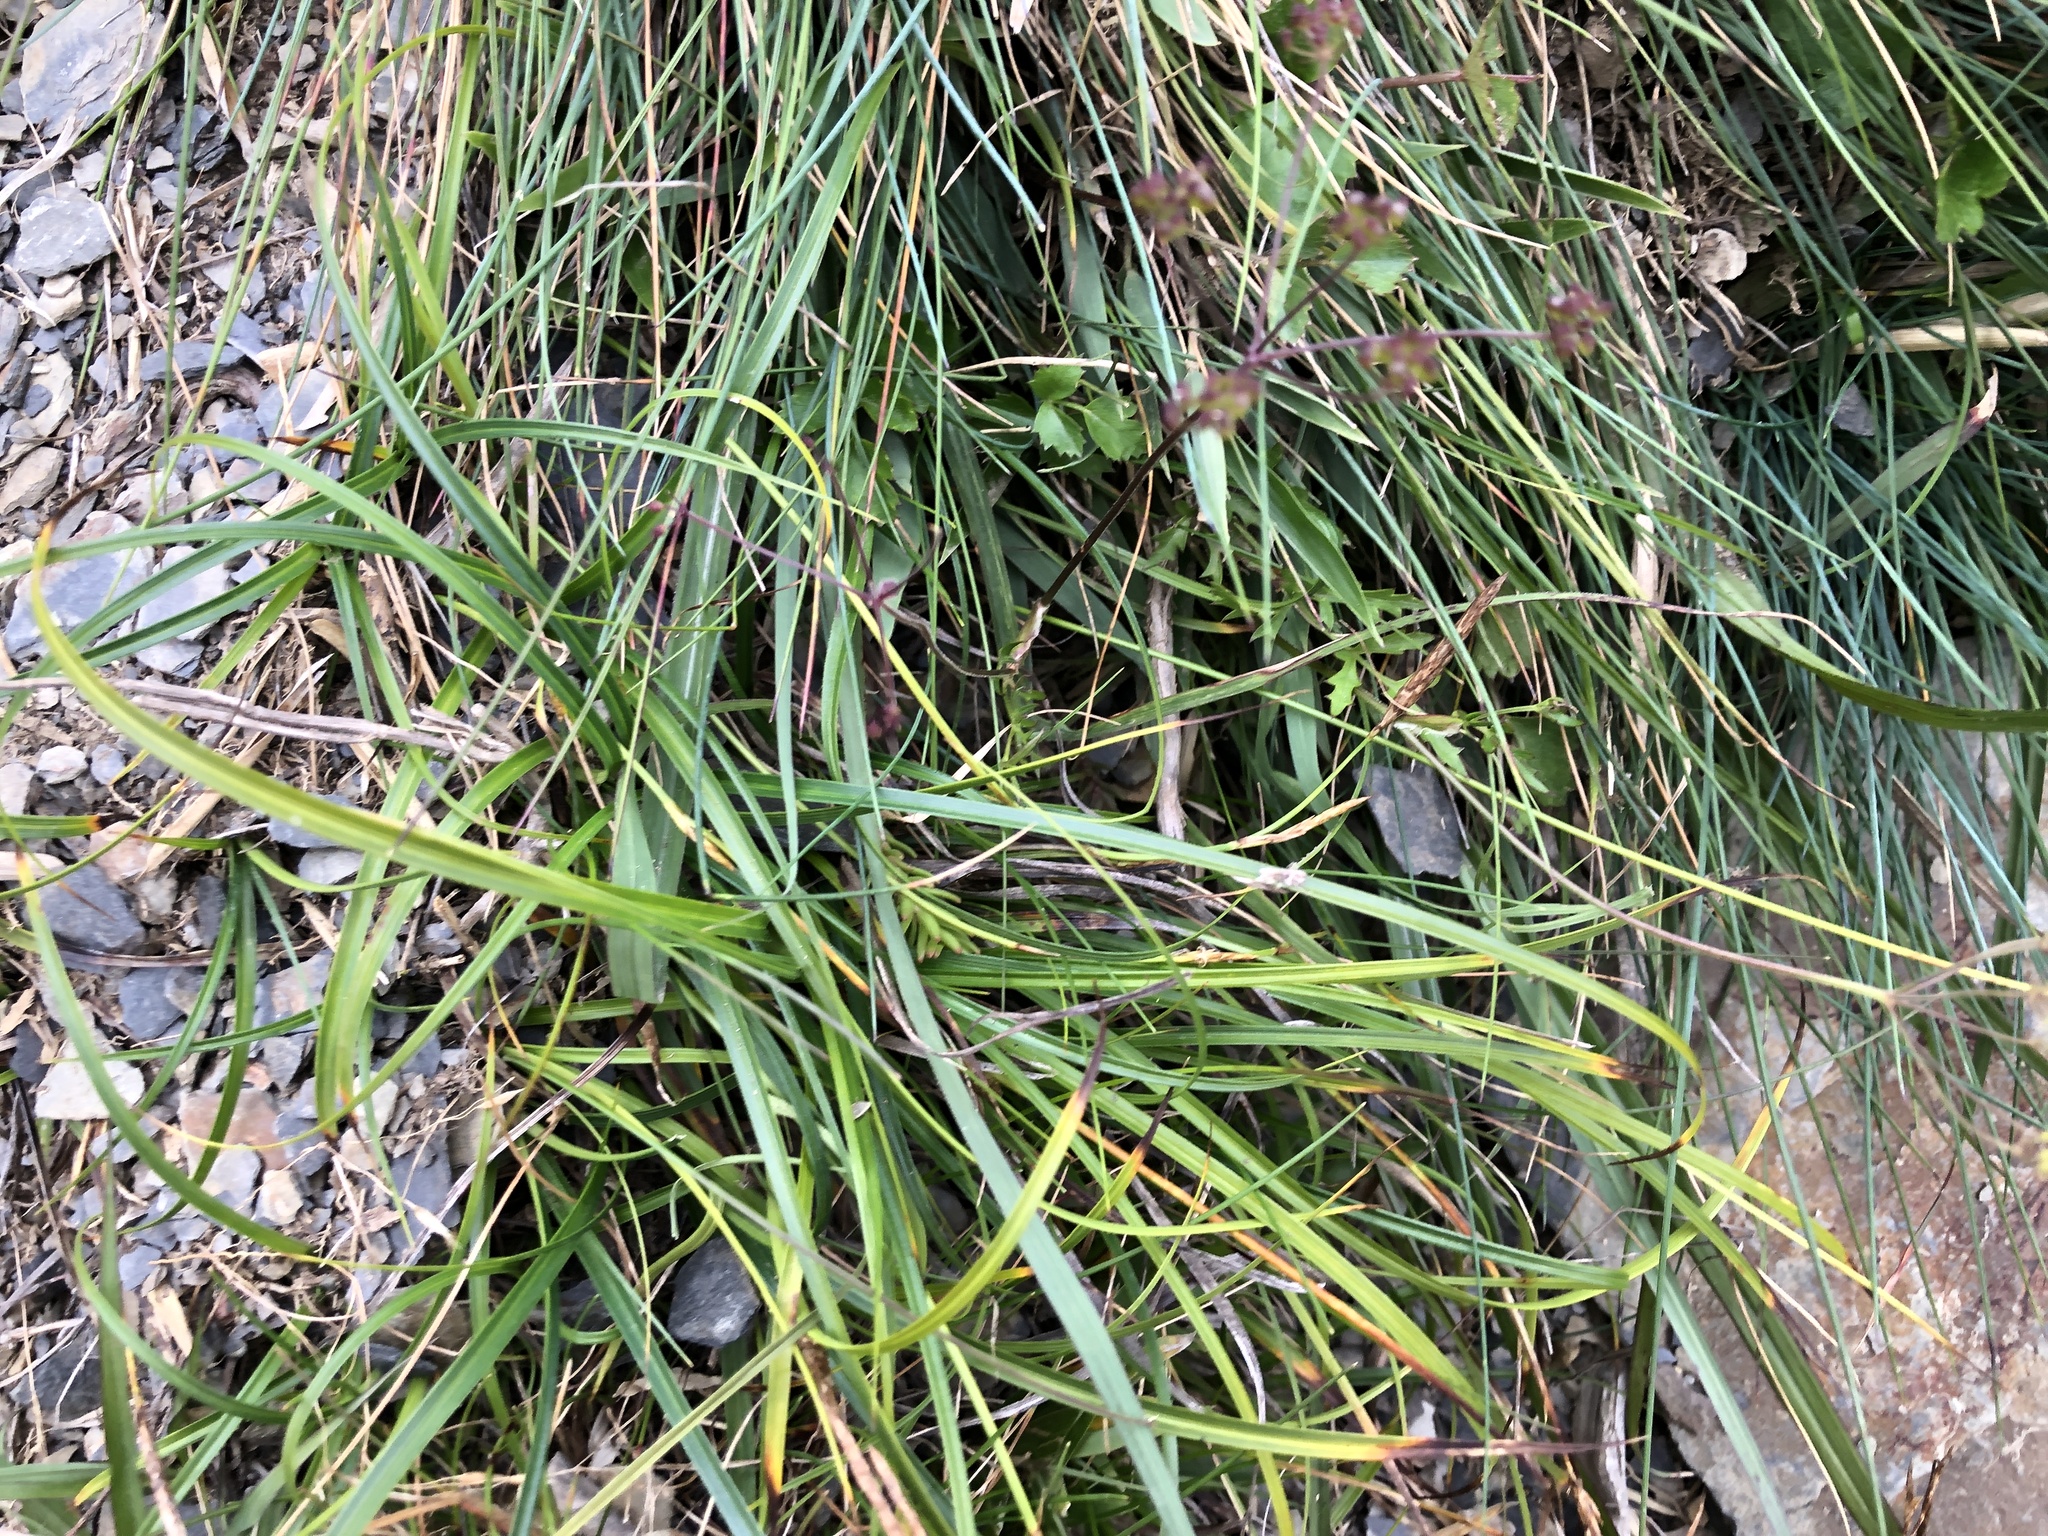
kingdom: Plantae
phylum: Tracheophyta
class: Magnoliopsida
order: Apiales
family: Apiaceae
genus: Pimpinella
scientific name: Pimpinella niitakayamensis
